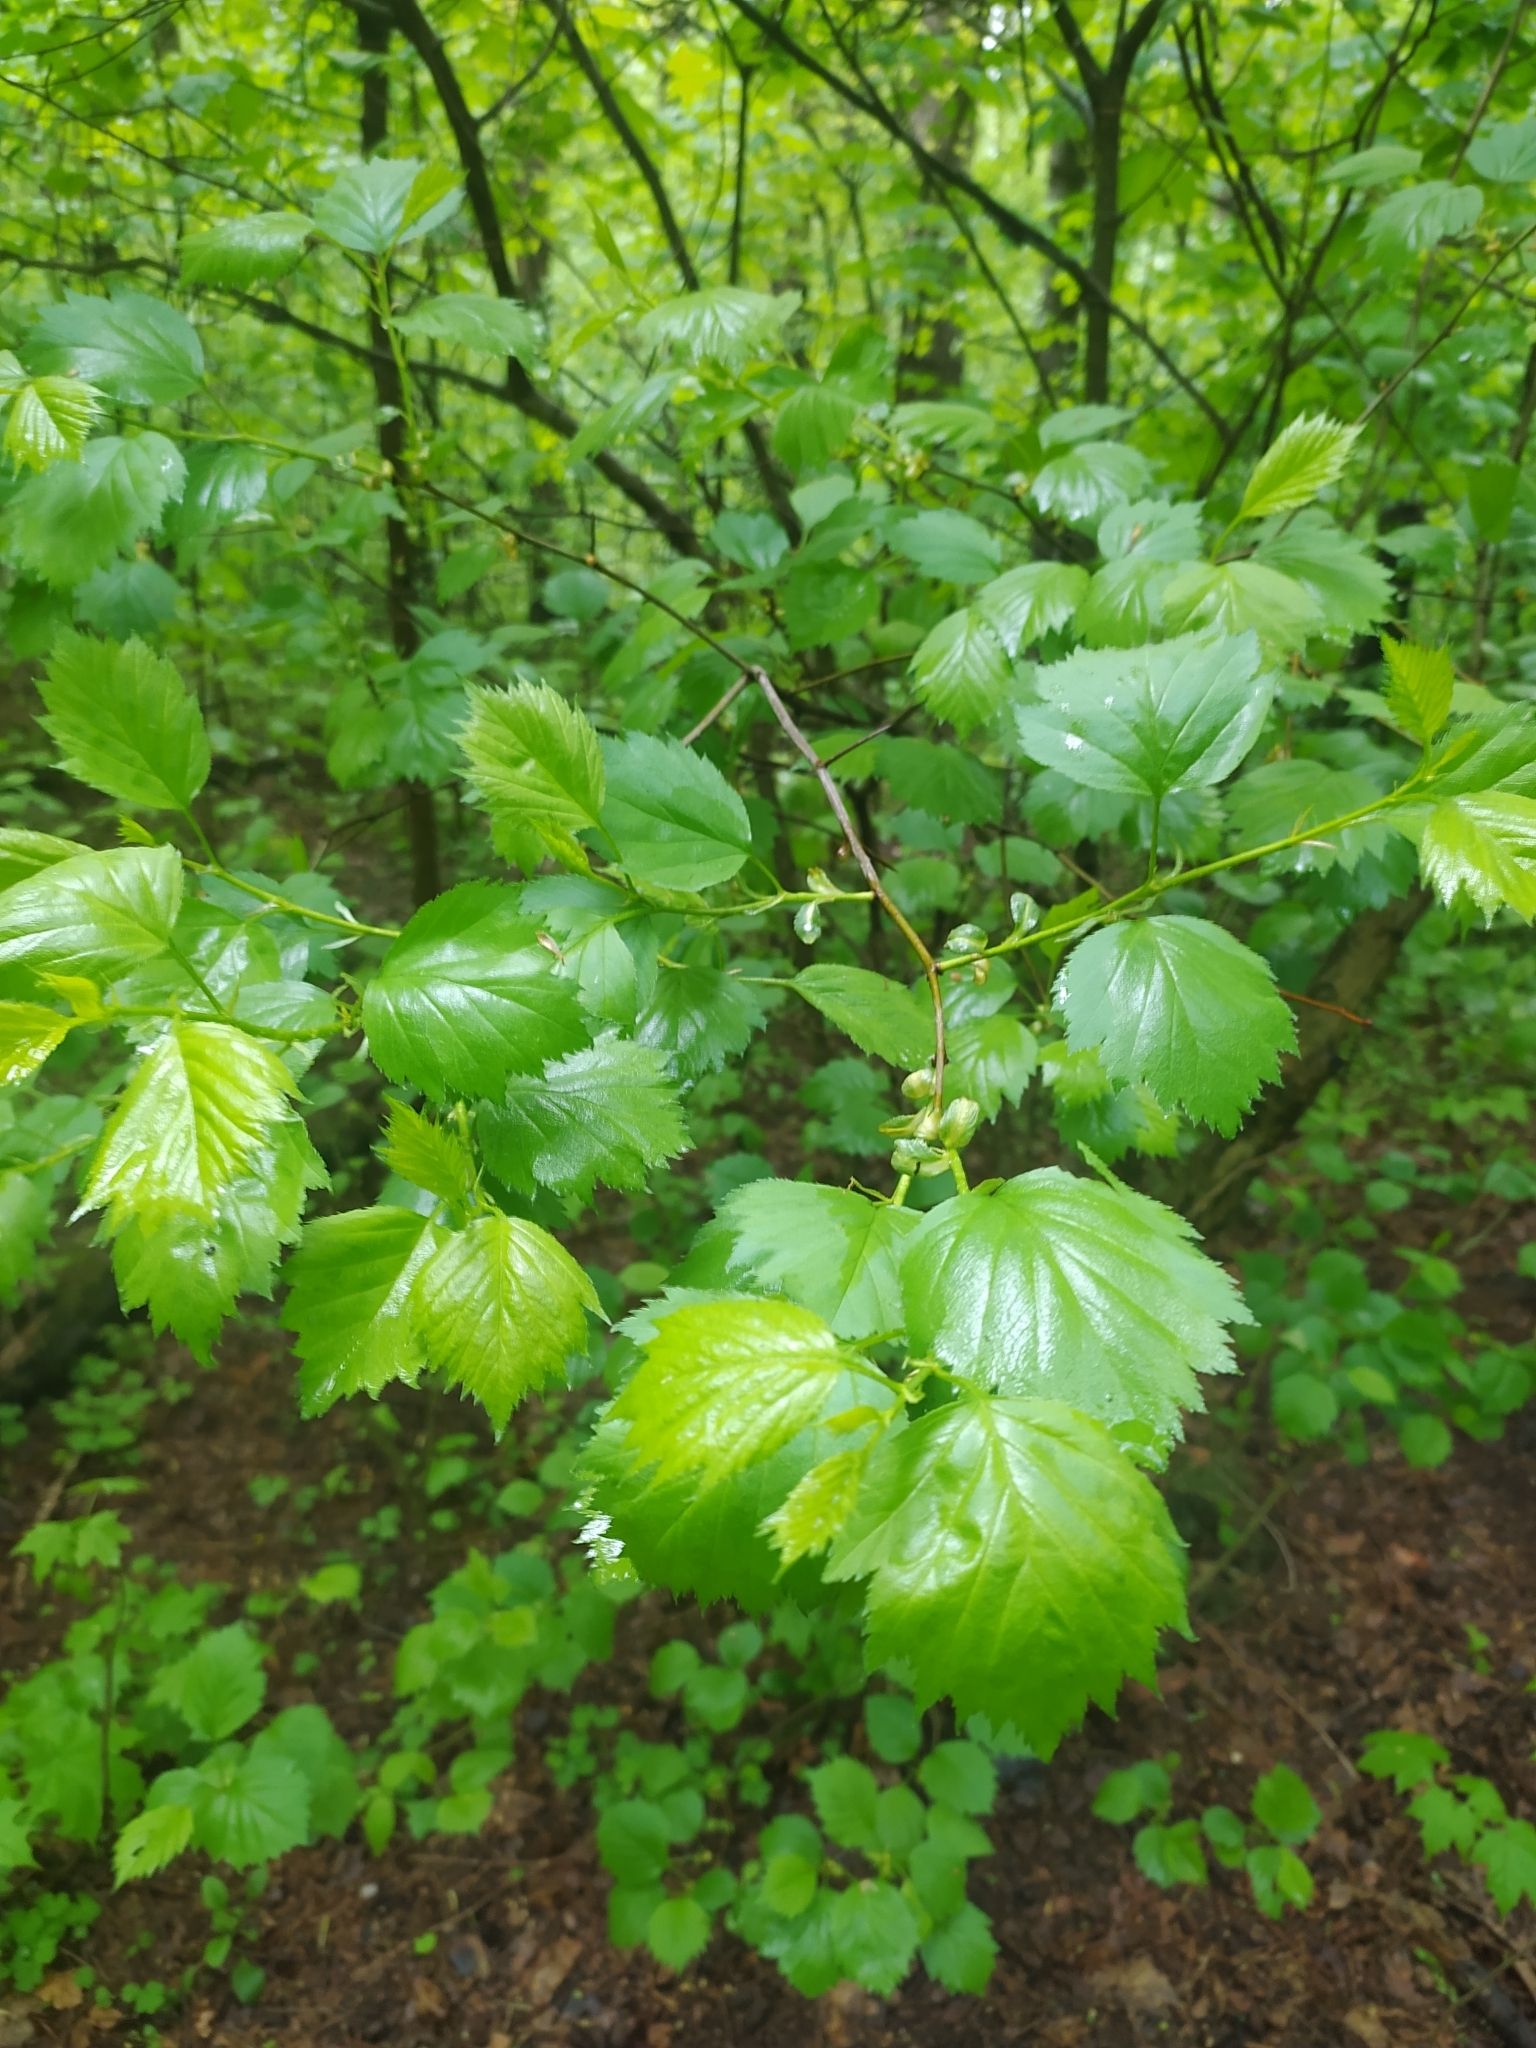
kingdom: Plantae
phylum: Tracheophyta
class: Magnoliopsida
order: Fagales
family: Betulaceae
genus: Corylus
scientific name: Corylus avellana
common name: European hazel
